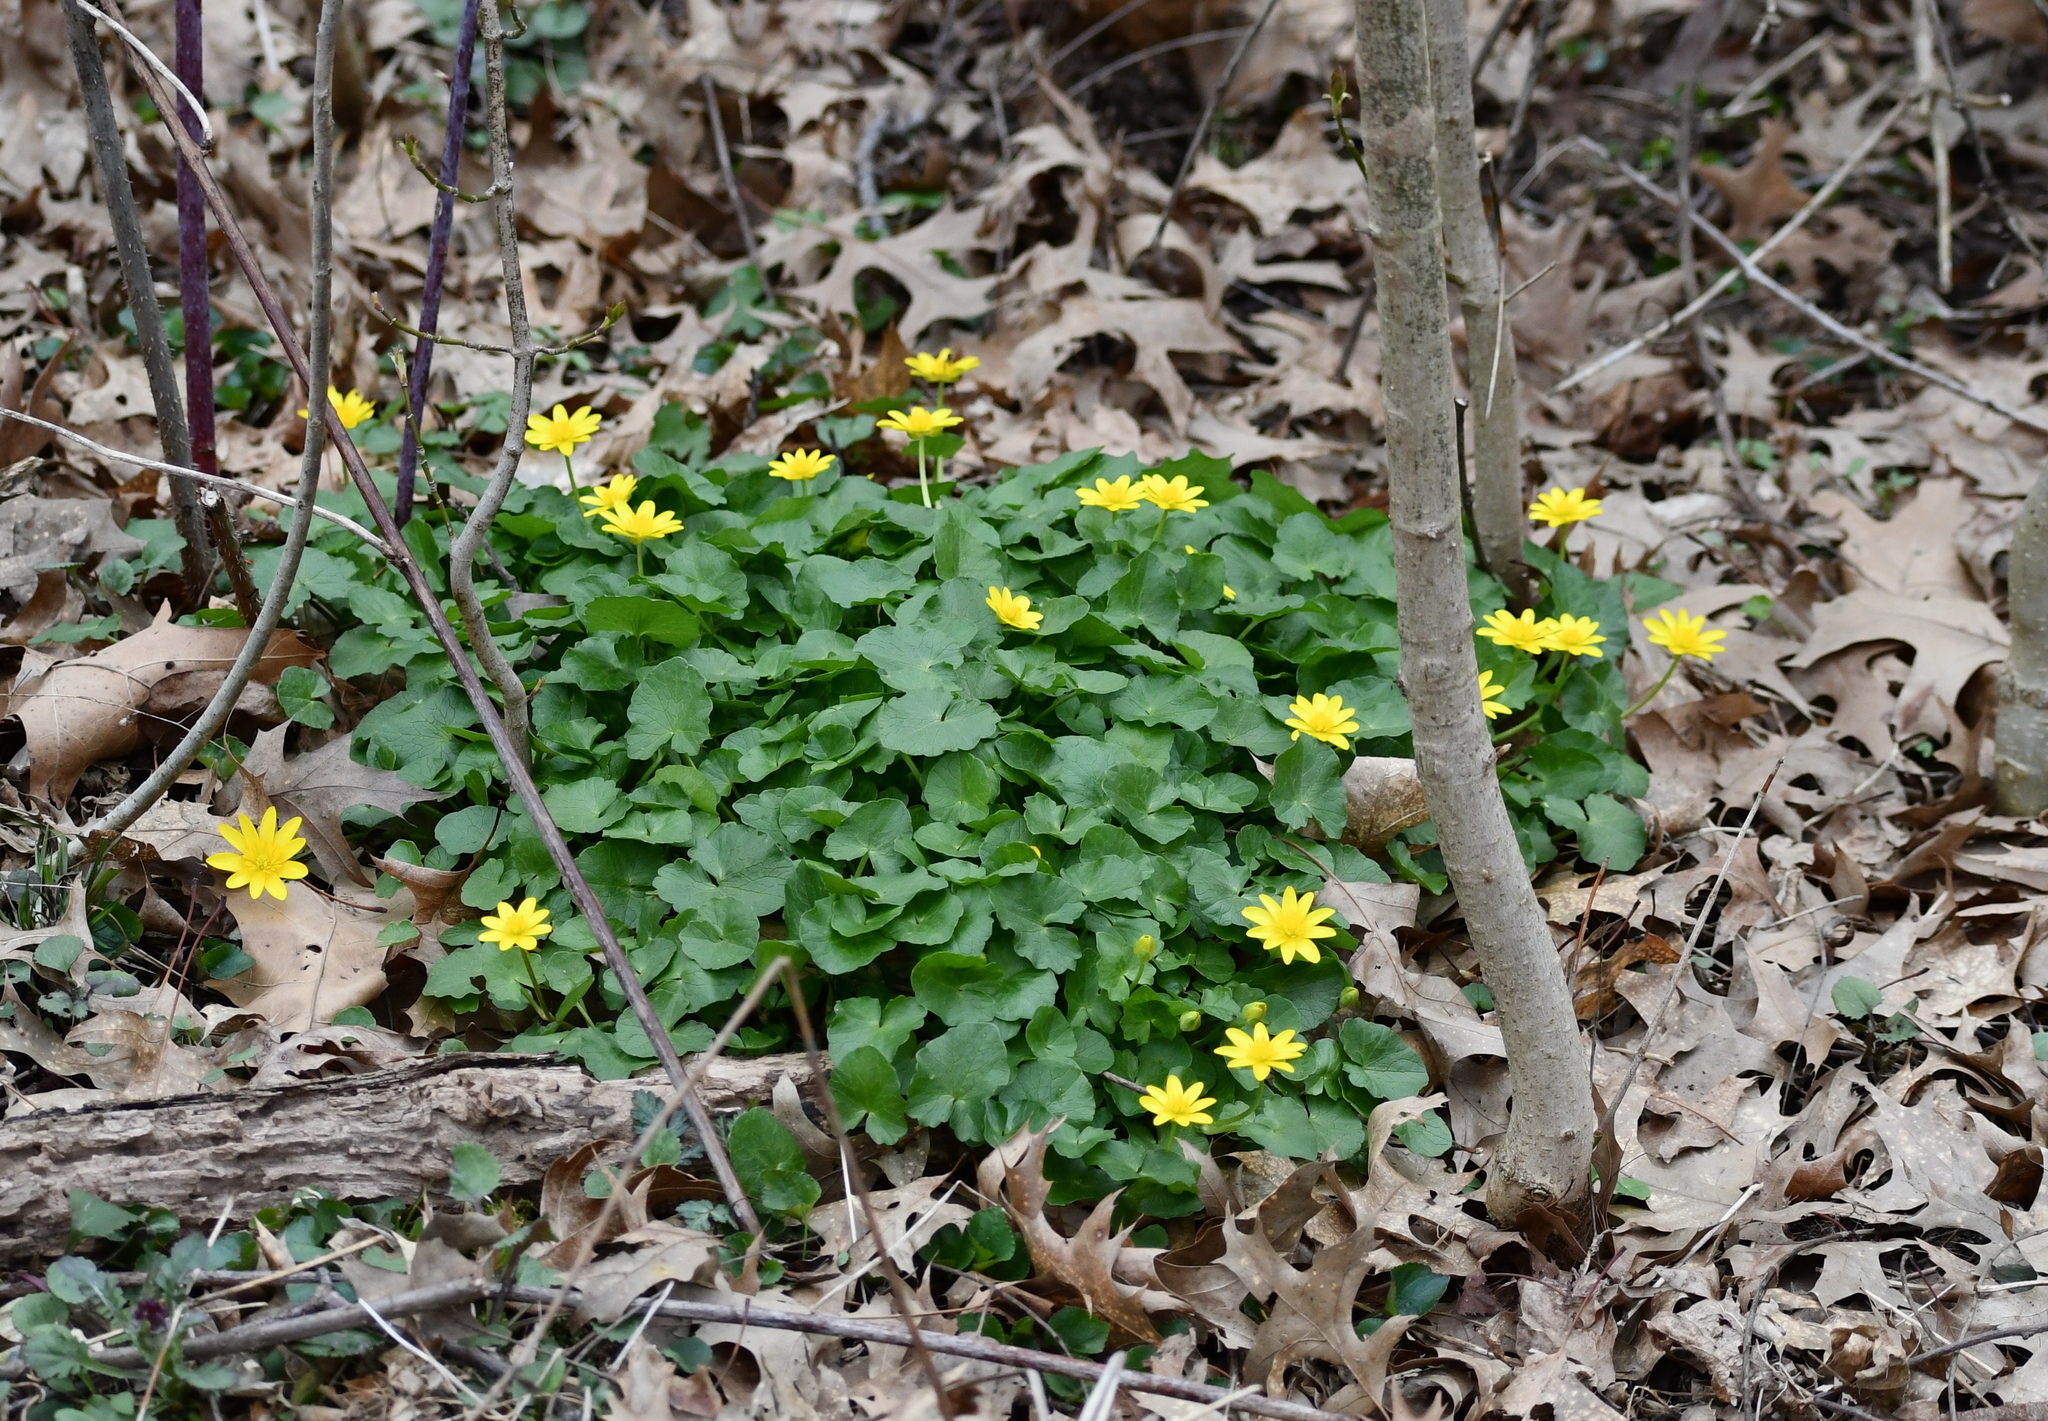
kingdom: Plantae
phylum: Tracheophyta
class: Magnoliopsida
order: Ranunculales
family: Ranunculaceae
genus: Ficaria
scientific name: Ficaria verna
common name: Lesser celandine
